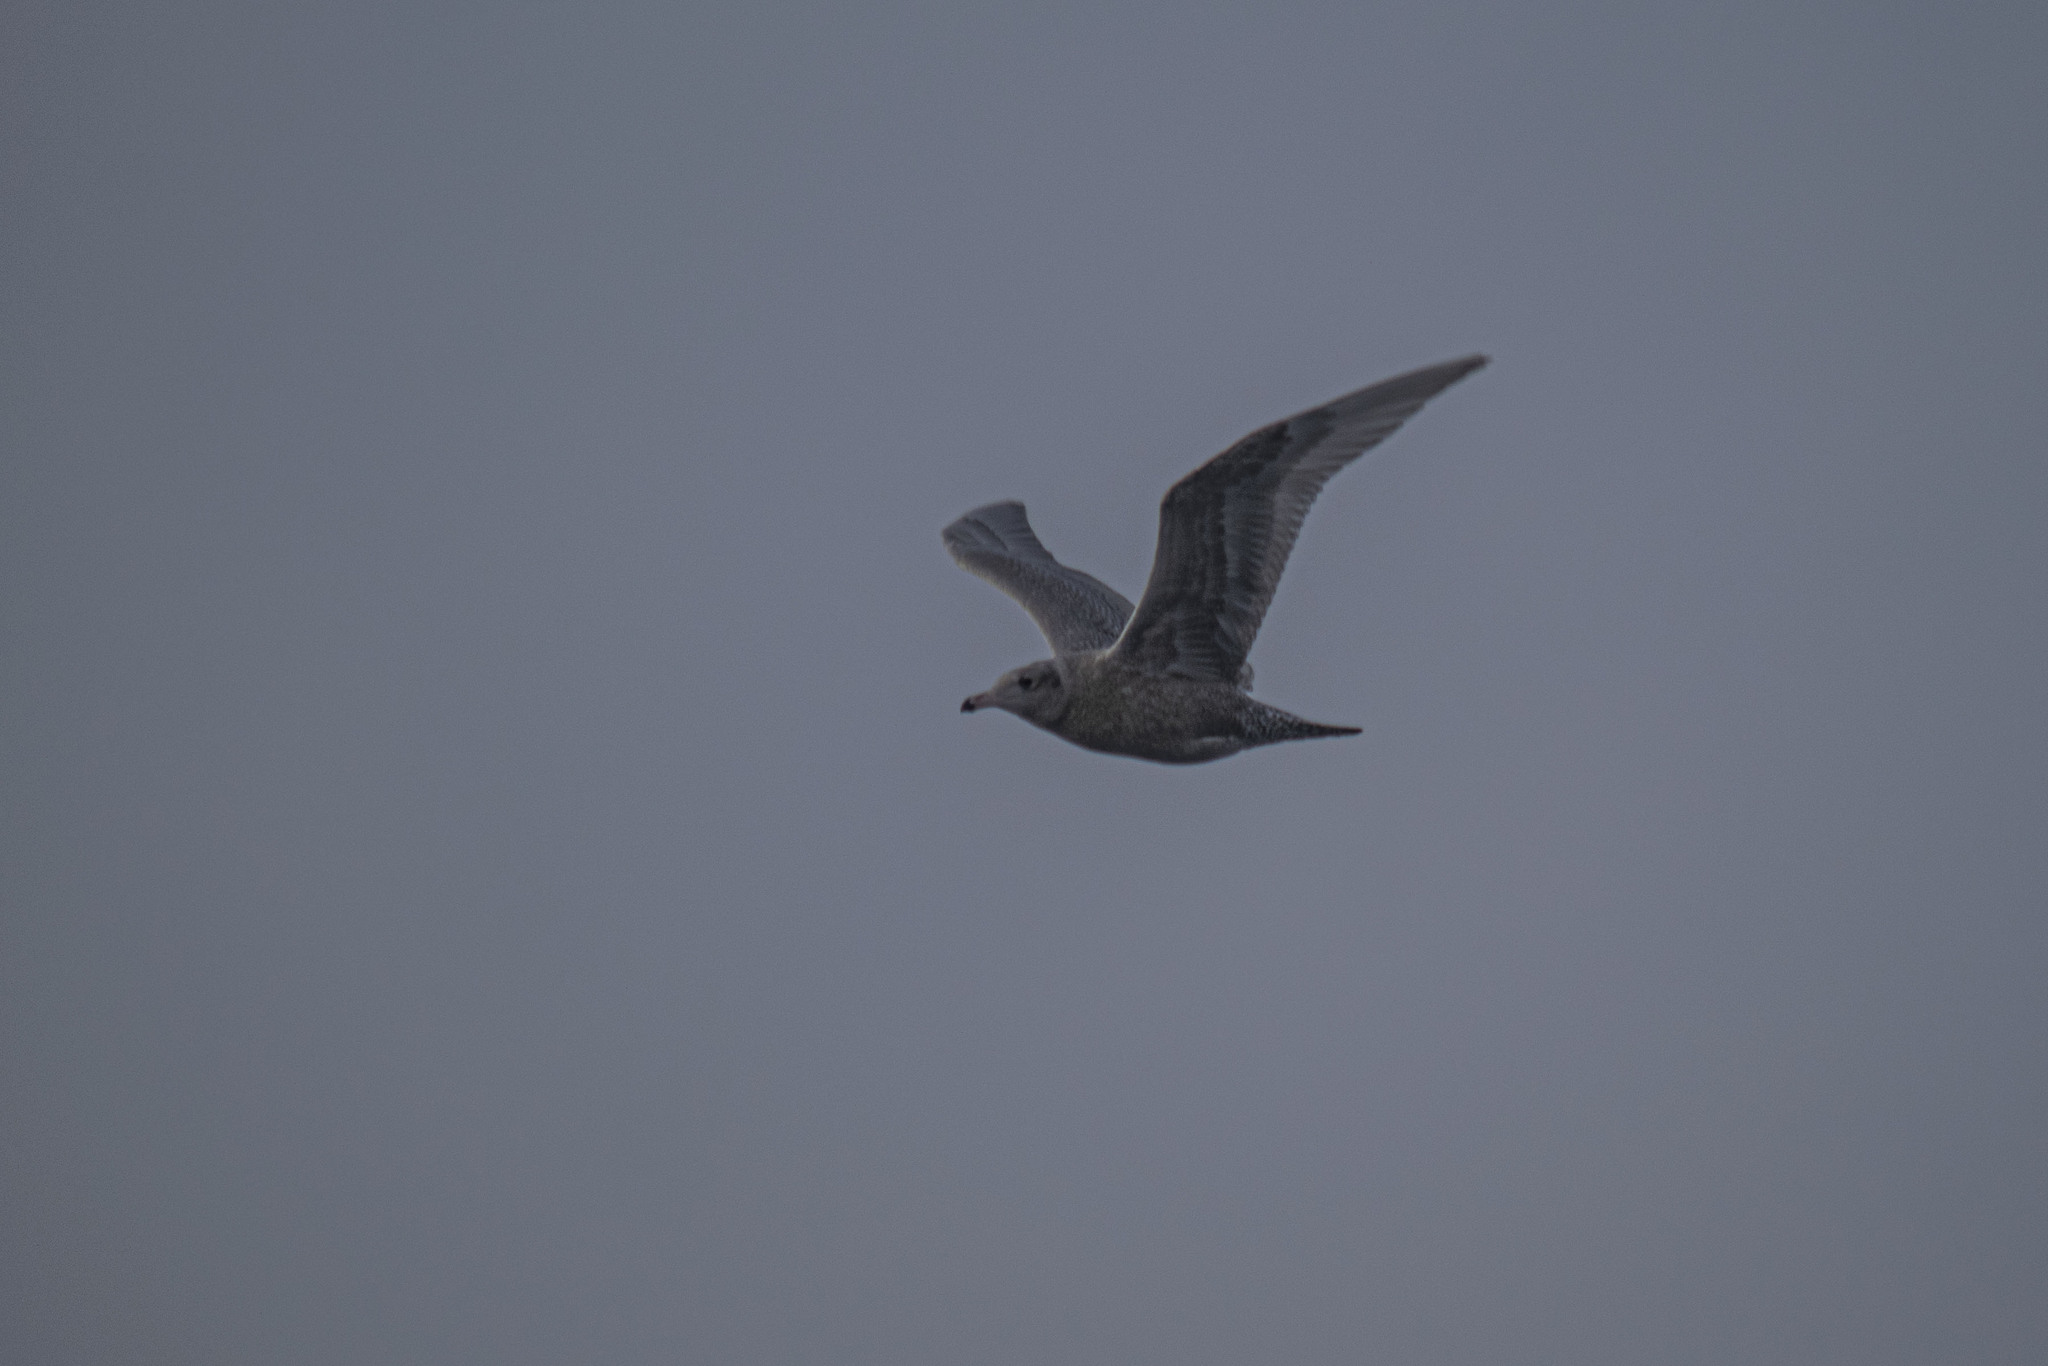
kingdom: Animalia
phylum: Chordata
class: Aves
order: Charadriiformes
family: Laridae
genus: Larus
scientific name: Larus hyperboreus
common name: Glaucous gull
